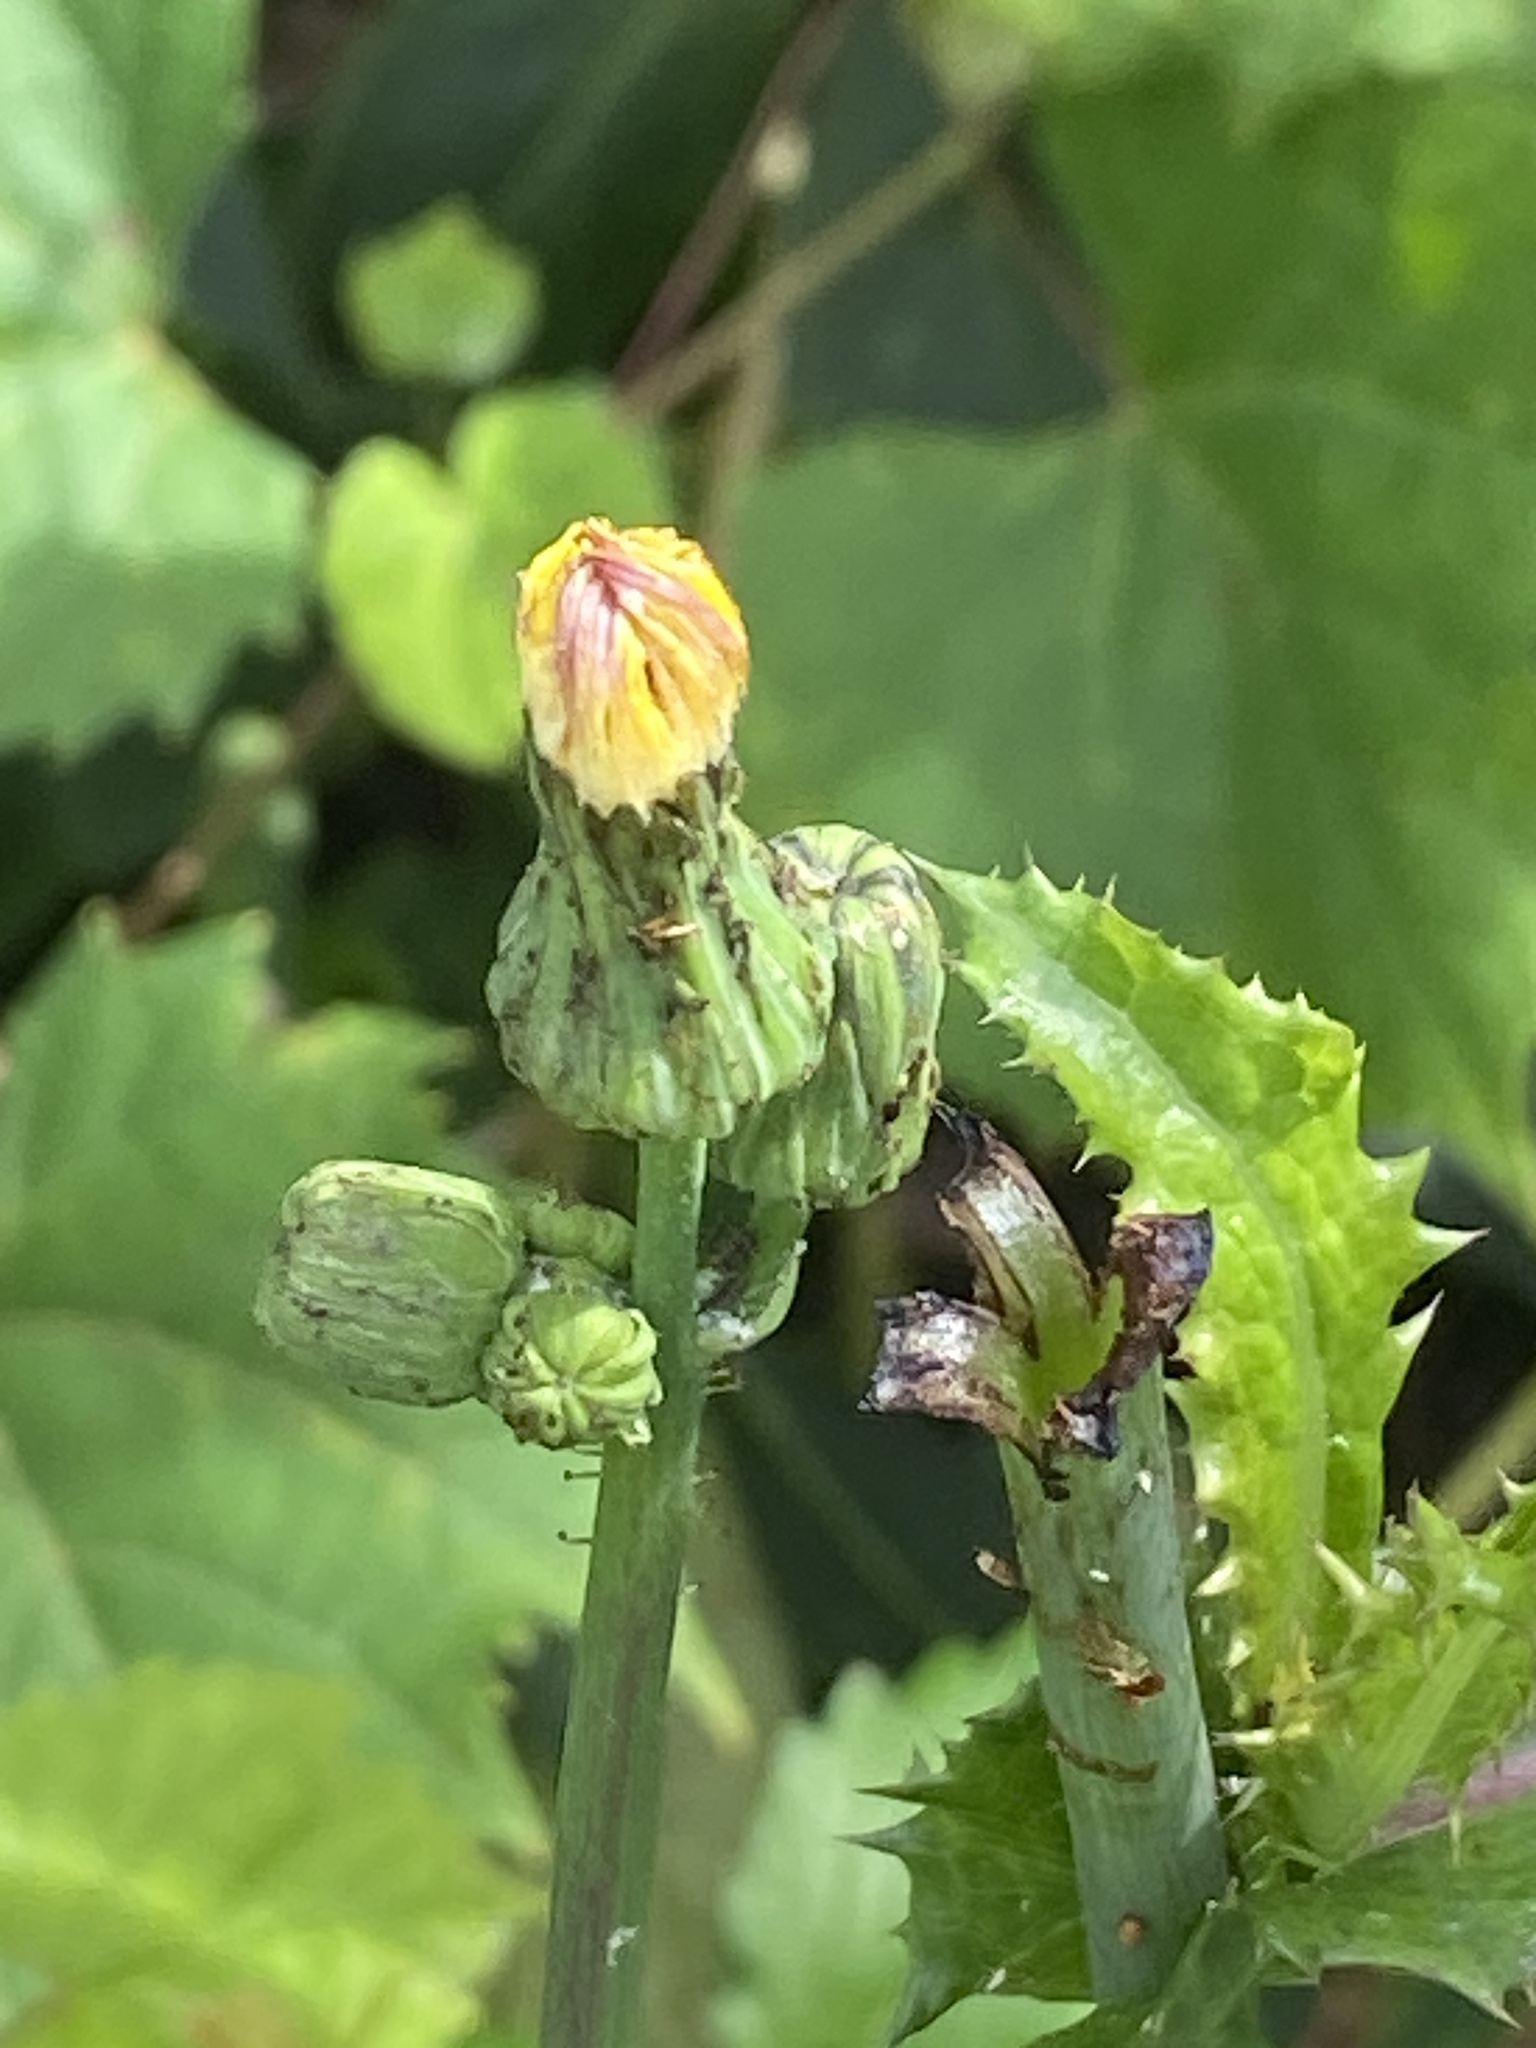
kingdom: Plantae
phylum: Tracheophyta
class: Magnoliopsida
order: Asterales
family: Asteraceae
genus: Sonchus
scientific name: Sonchus asper
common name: Prickly sow-thistle
